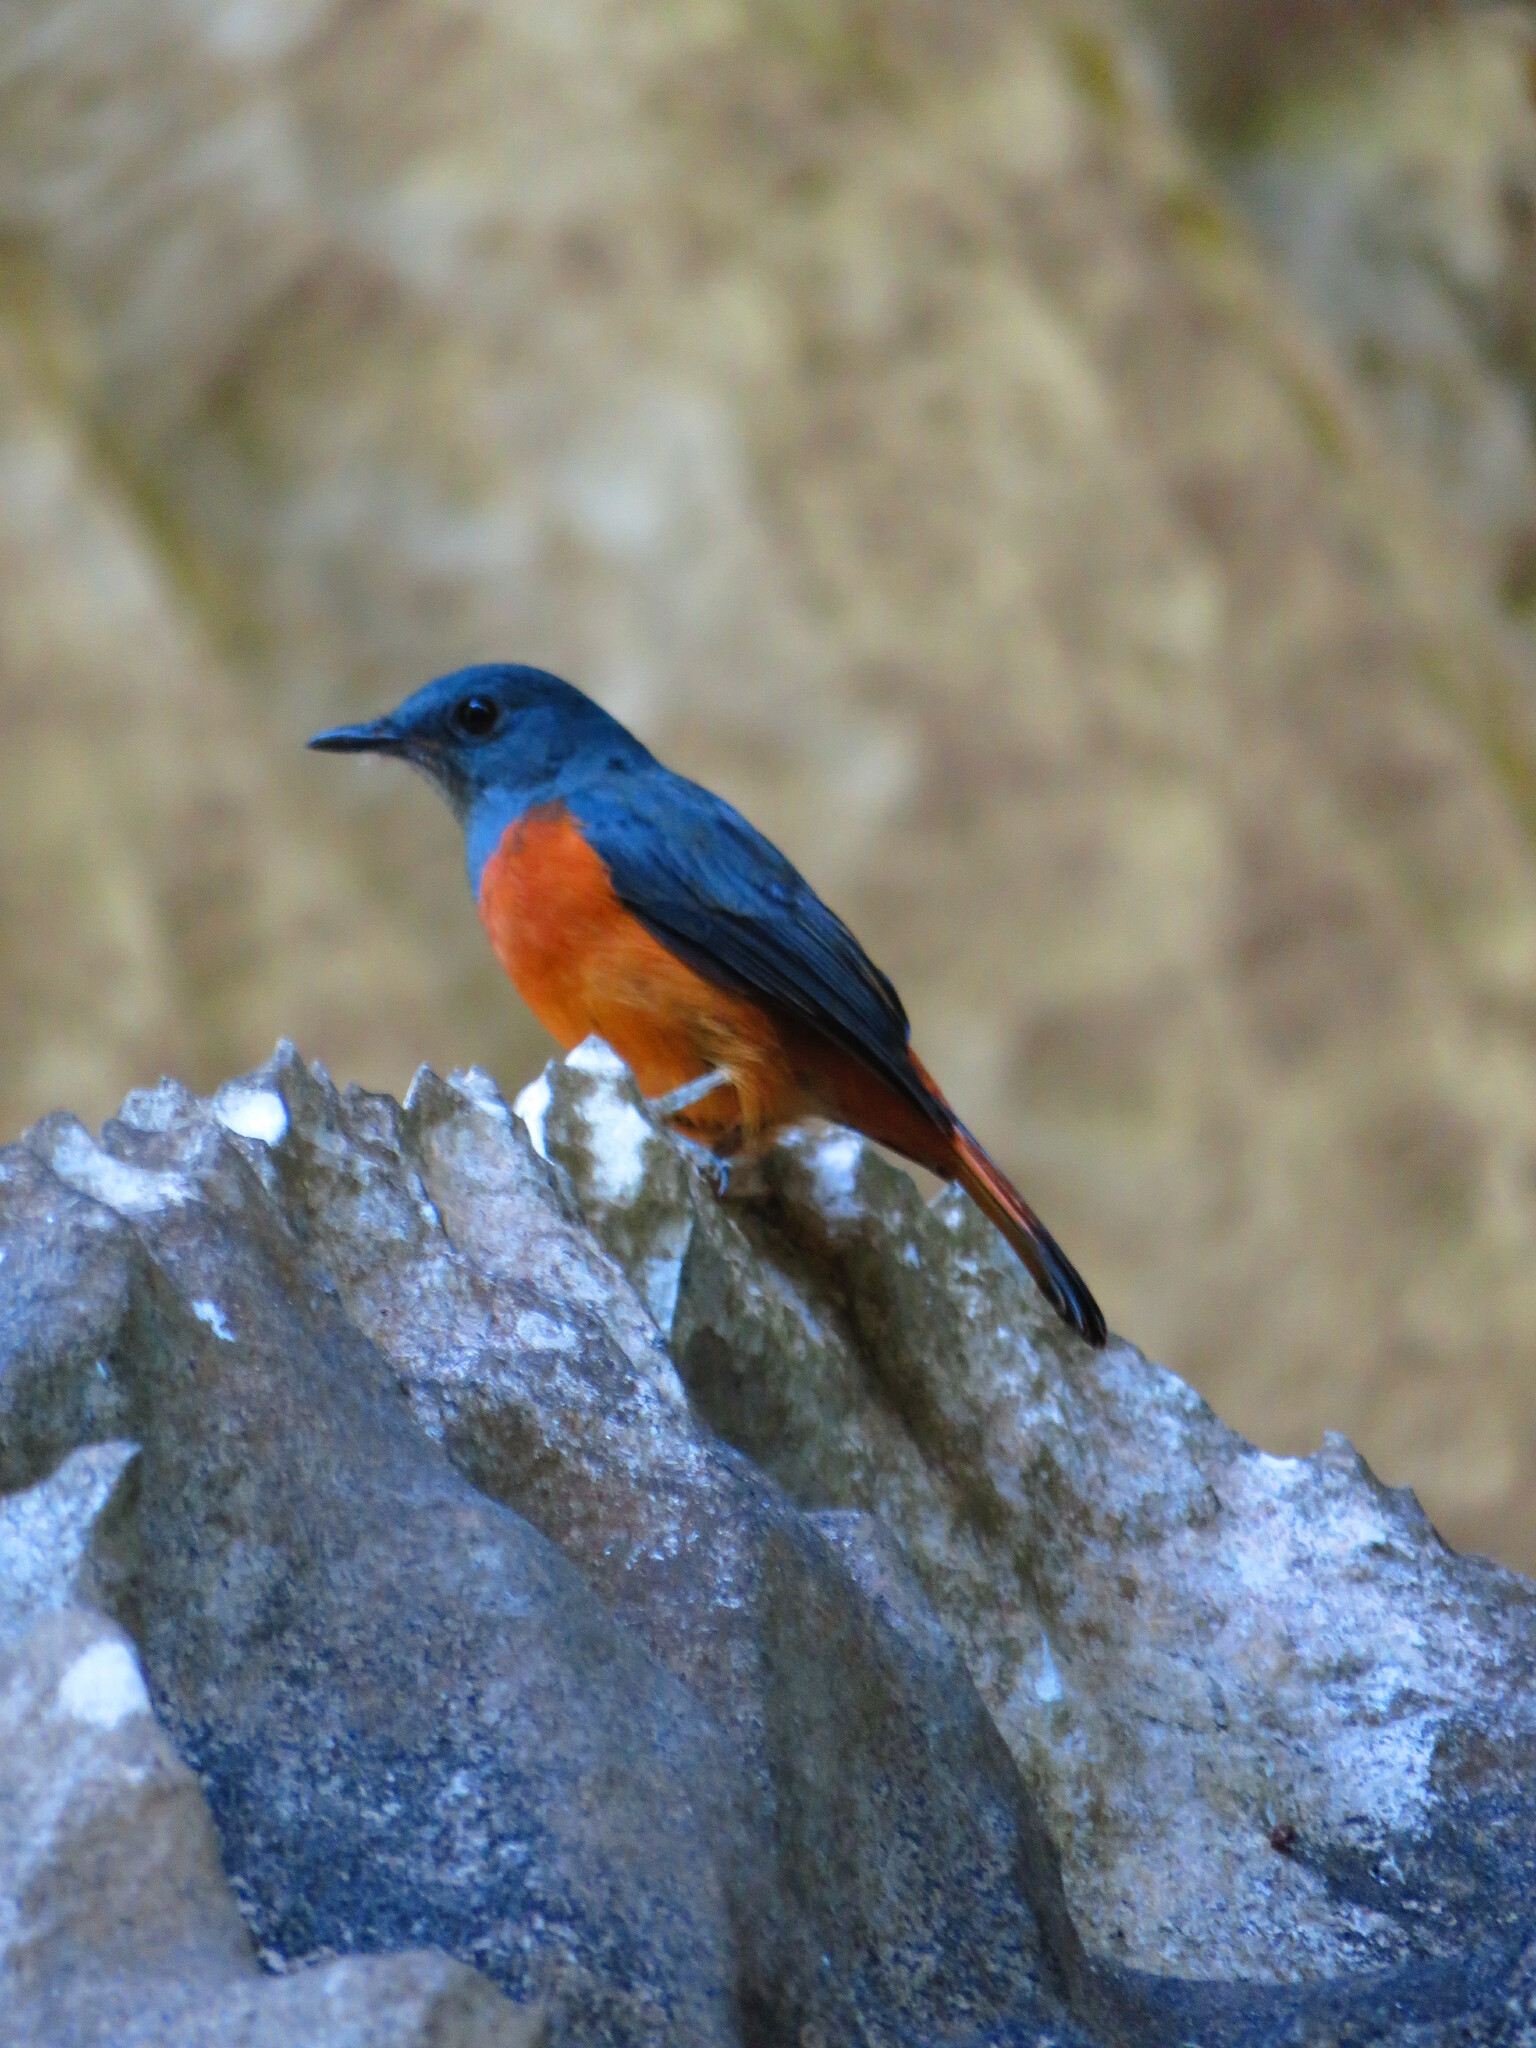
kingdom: Animalia
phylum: Chordata
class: Aves
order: Passeriformes
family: Muscicapidae
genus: Monticola
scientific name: Monticola sharpei
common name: Forest rock-thrush
